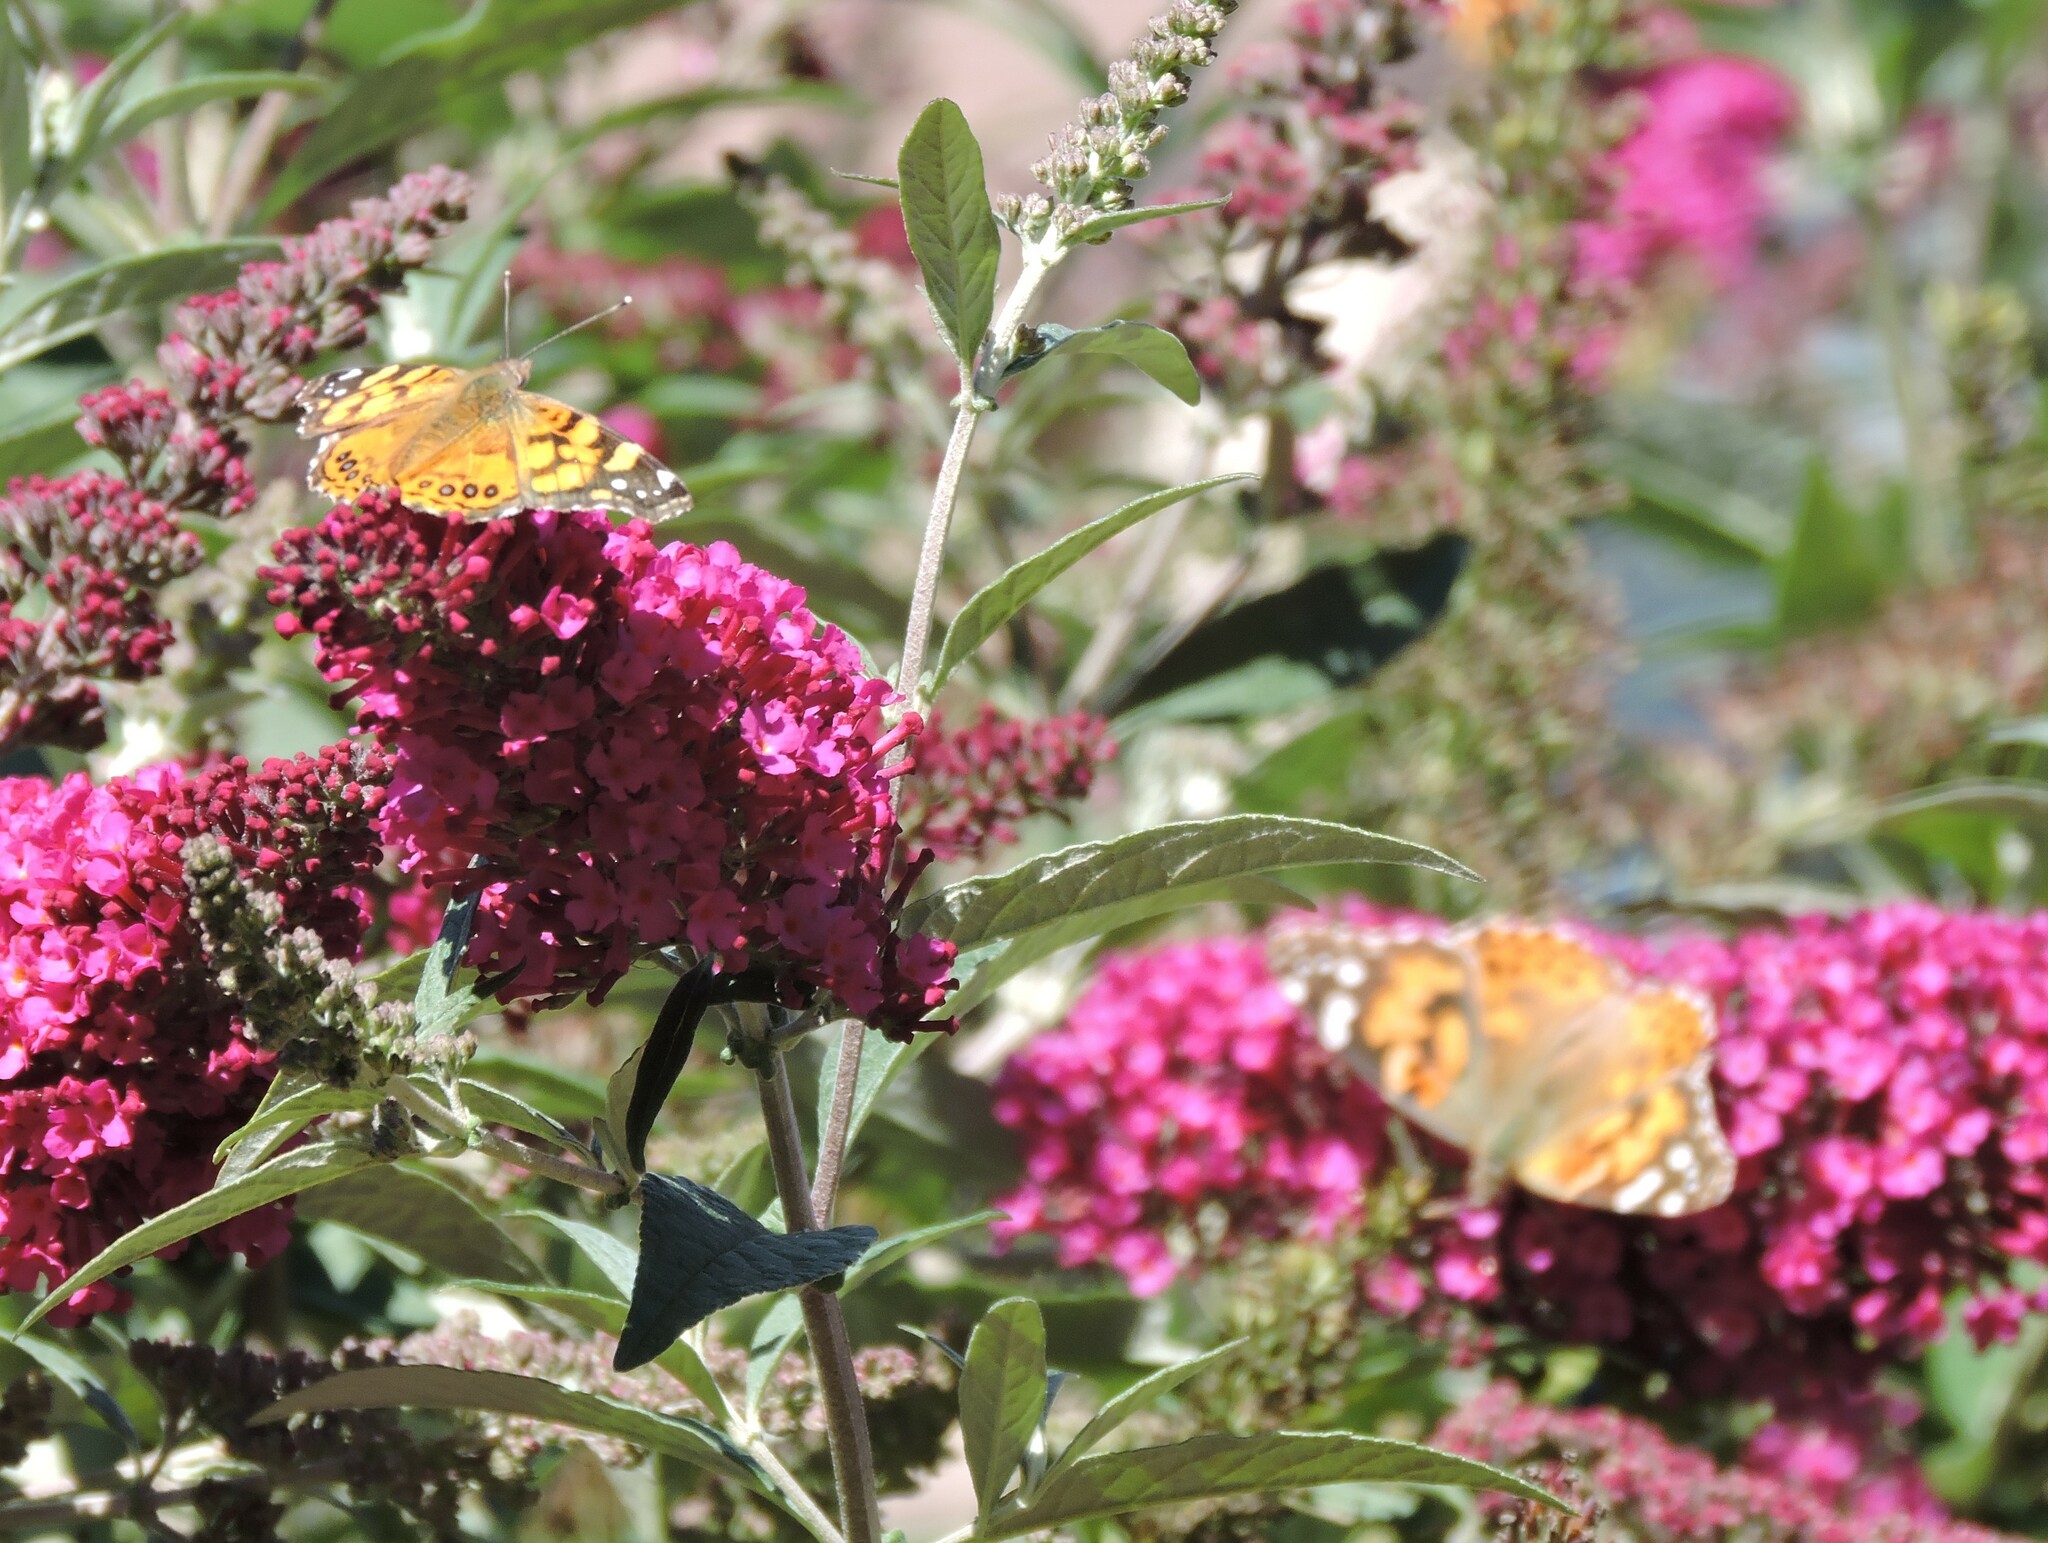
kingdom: Animalia
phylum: Arthropoda
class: Insecta
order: Lepidoptera
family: Nymphalidae
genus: Vanessa
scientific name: Vanessa annabella
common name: West coast lady
